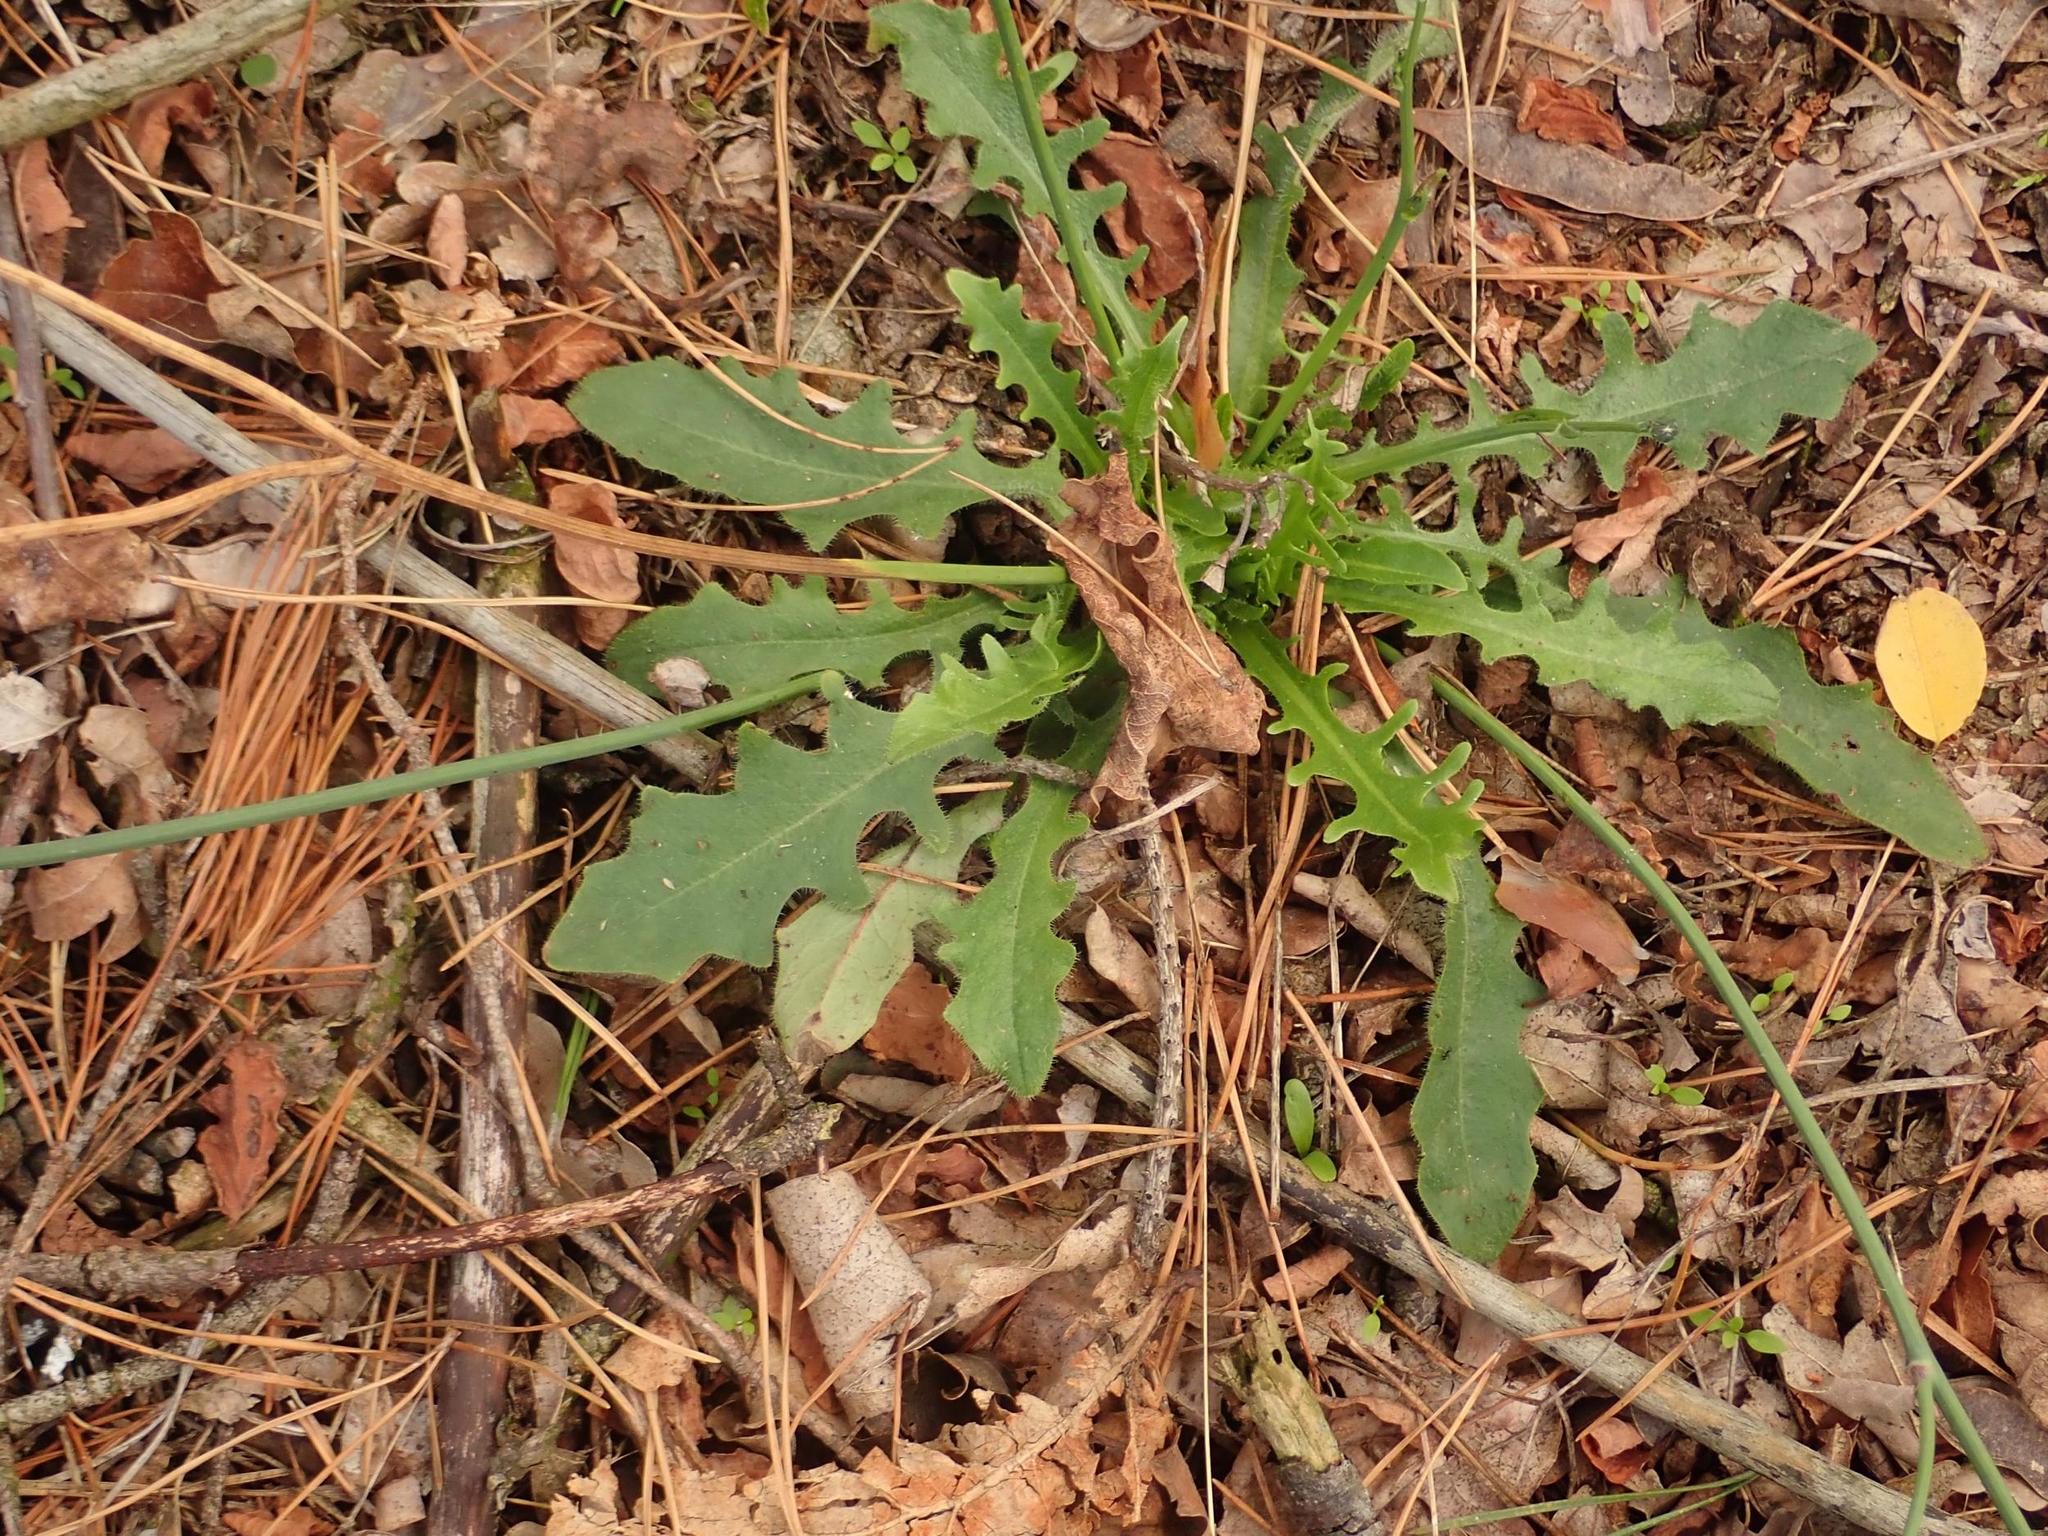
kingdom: Plantae
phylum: Tracheophyta
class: Magnoliopsida
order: Asterales
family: Asteraceae
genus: Hypochaeris
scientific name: Hypochaeris radicata
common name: Flatweed
